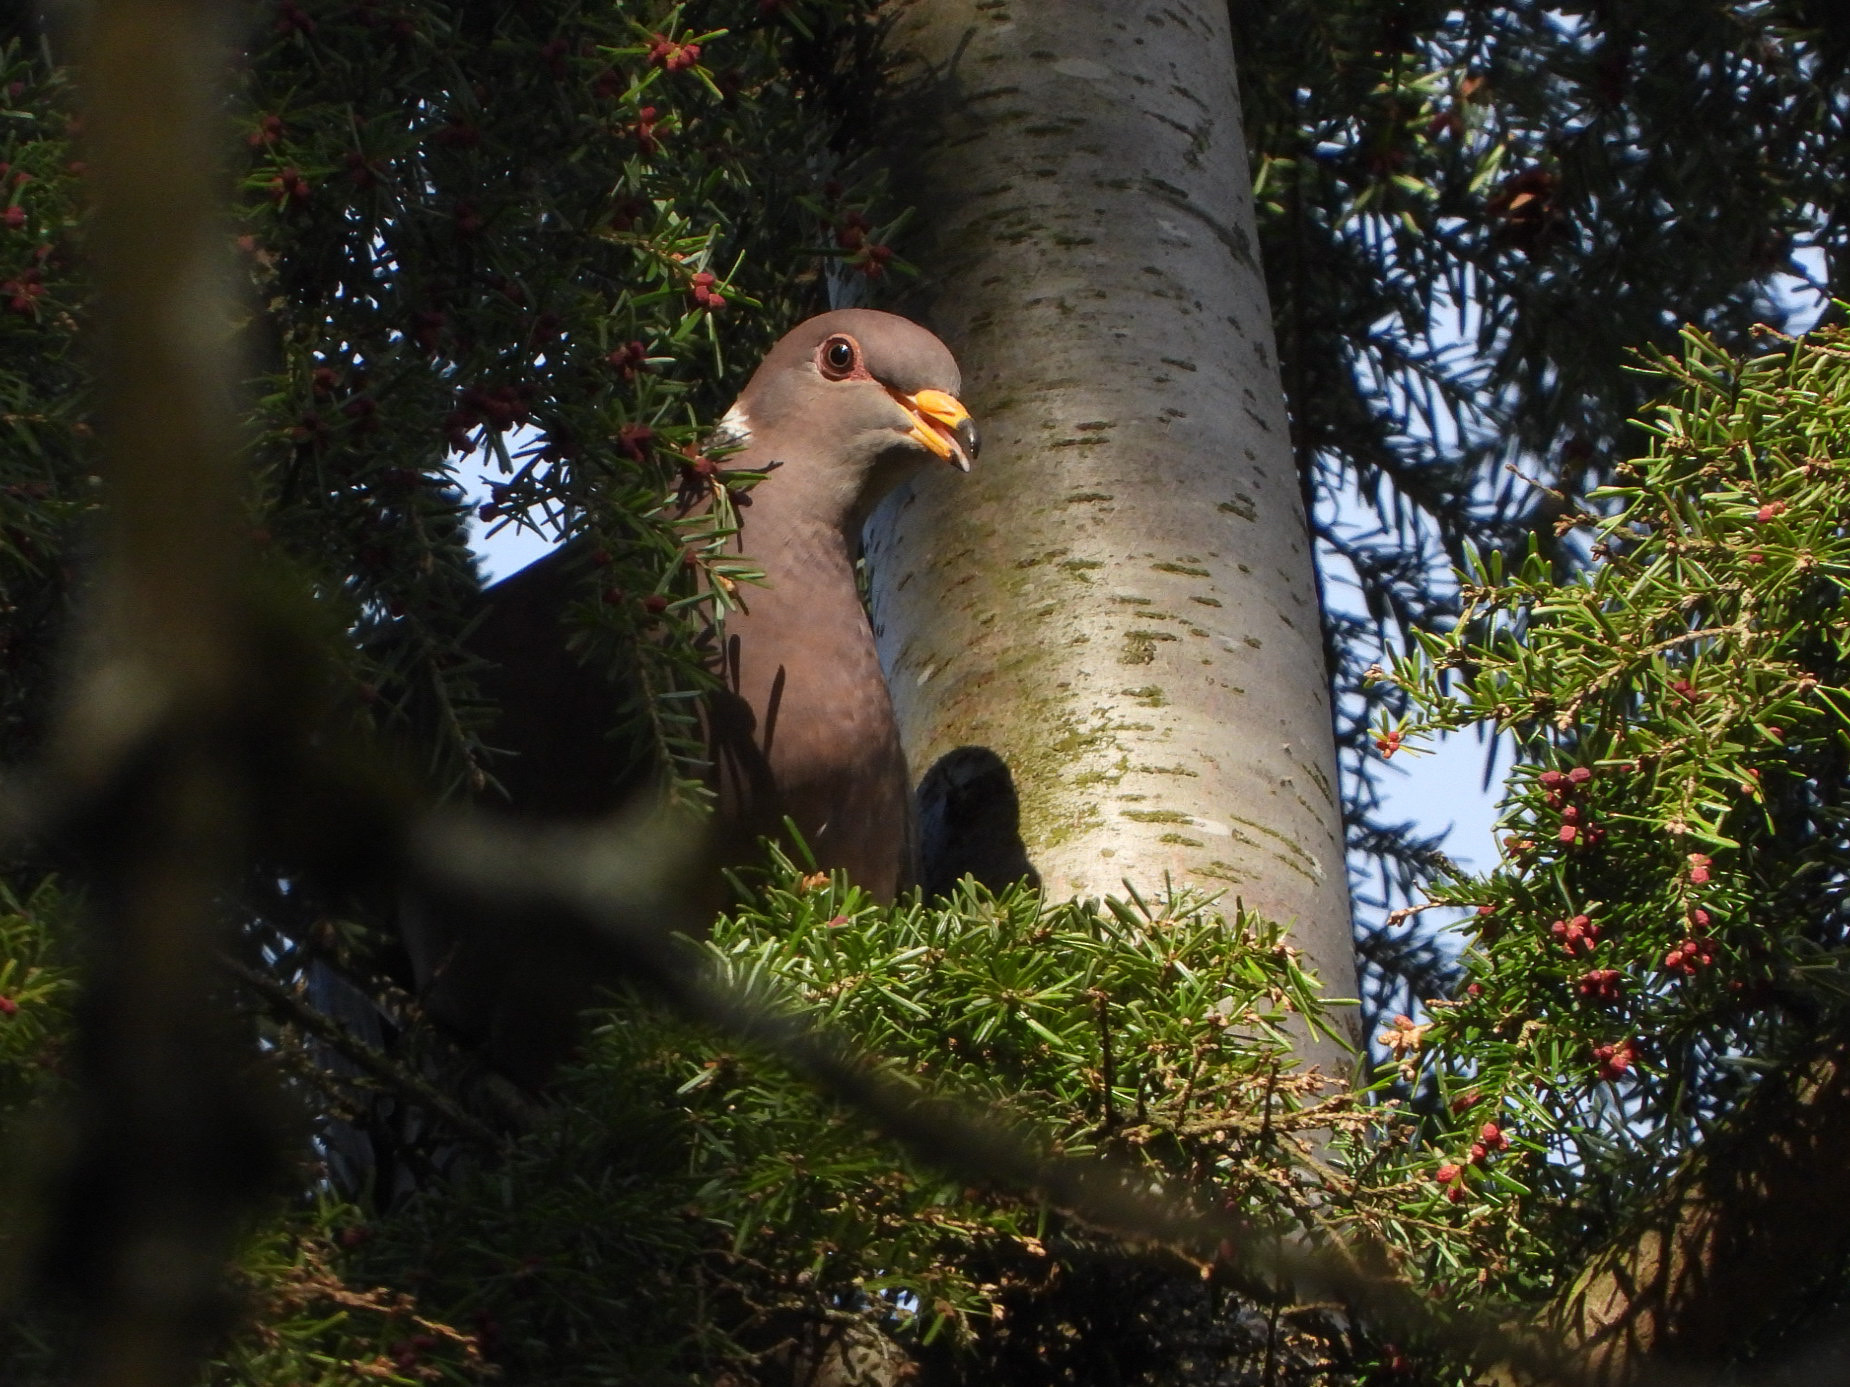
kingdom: Animalia
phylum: Chordata
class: Aves
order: Columbiformes
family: Columbidae
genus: Patagioenas
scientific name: Patagioenas fasciata
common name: Band-tailed pigeon
